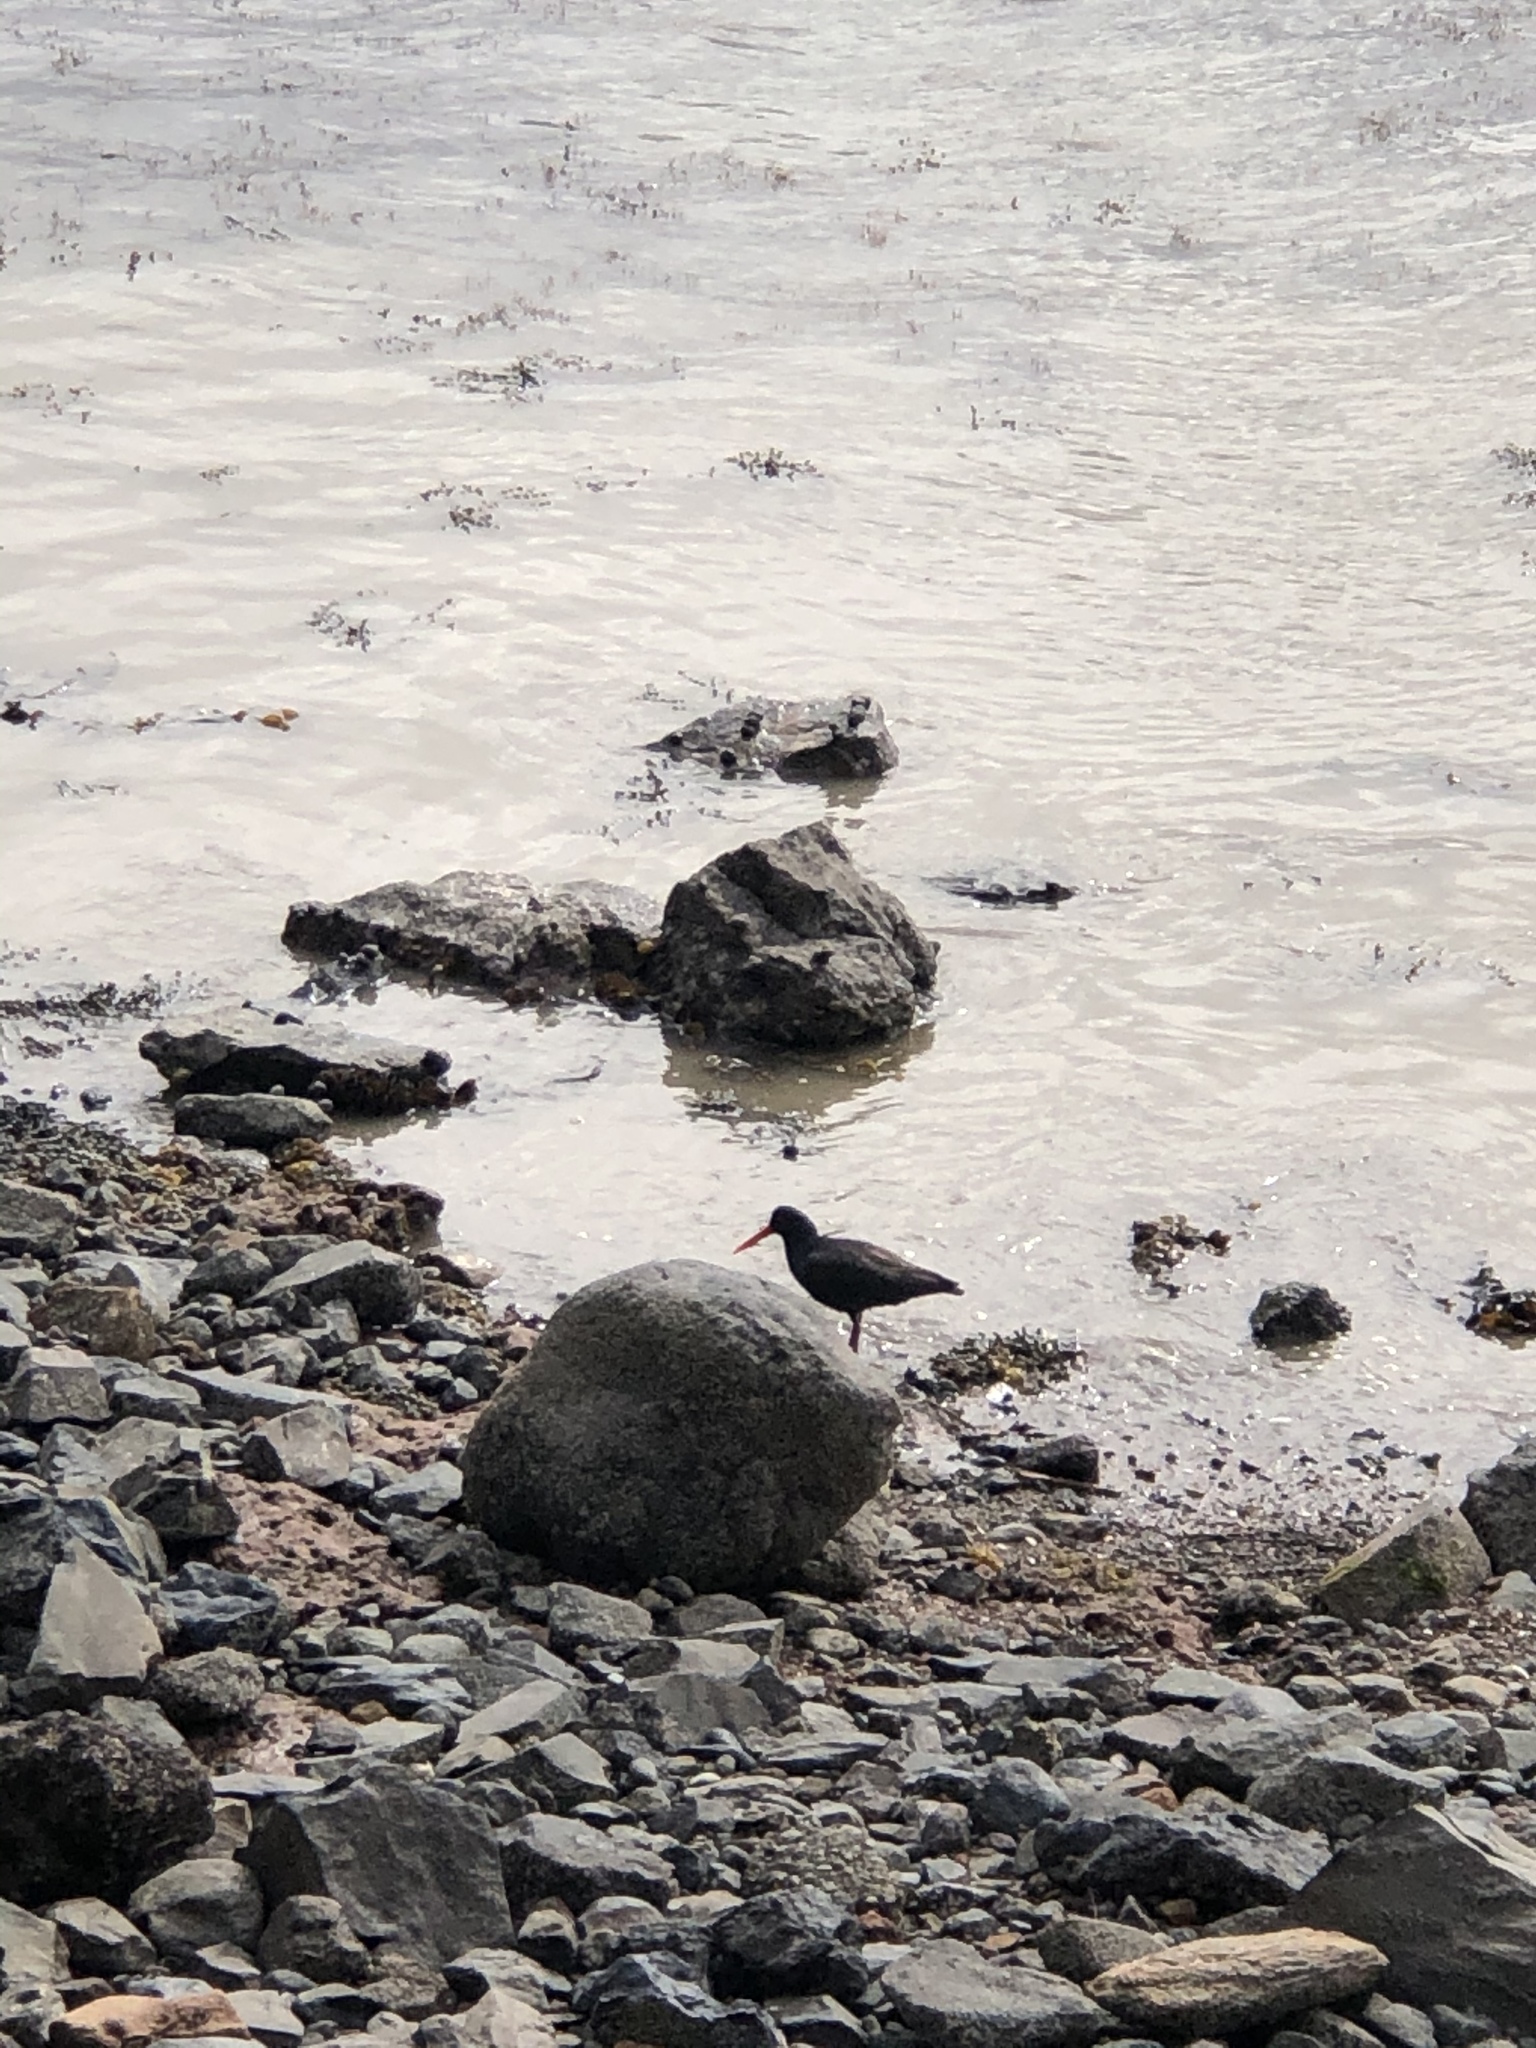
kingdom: Animalia
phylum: Chordata
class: Aves
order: Charadriiformes
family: Haematopodidae
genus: Haematopus
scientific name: Haematopus unicolor
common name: Variable oystercatcher
